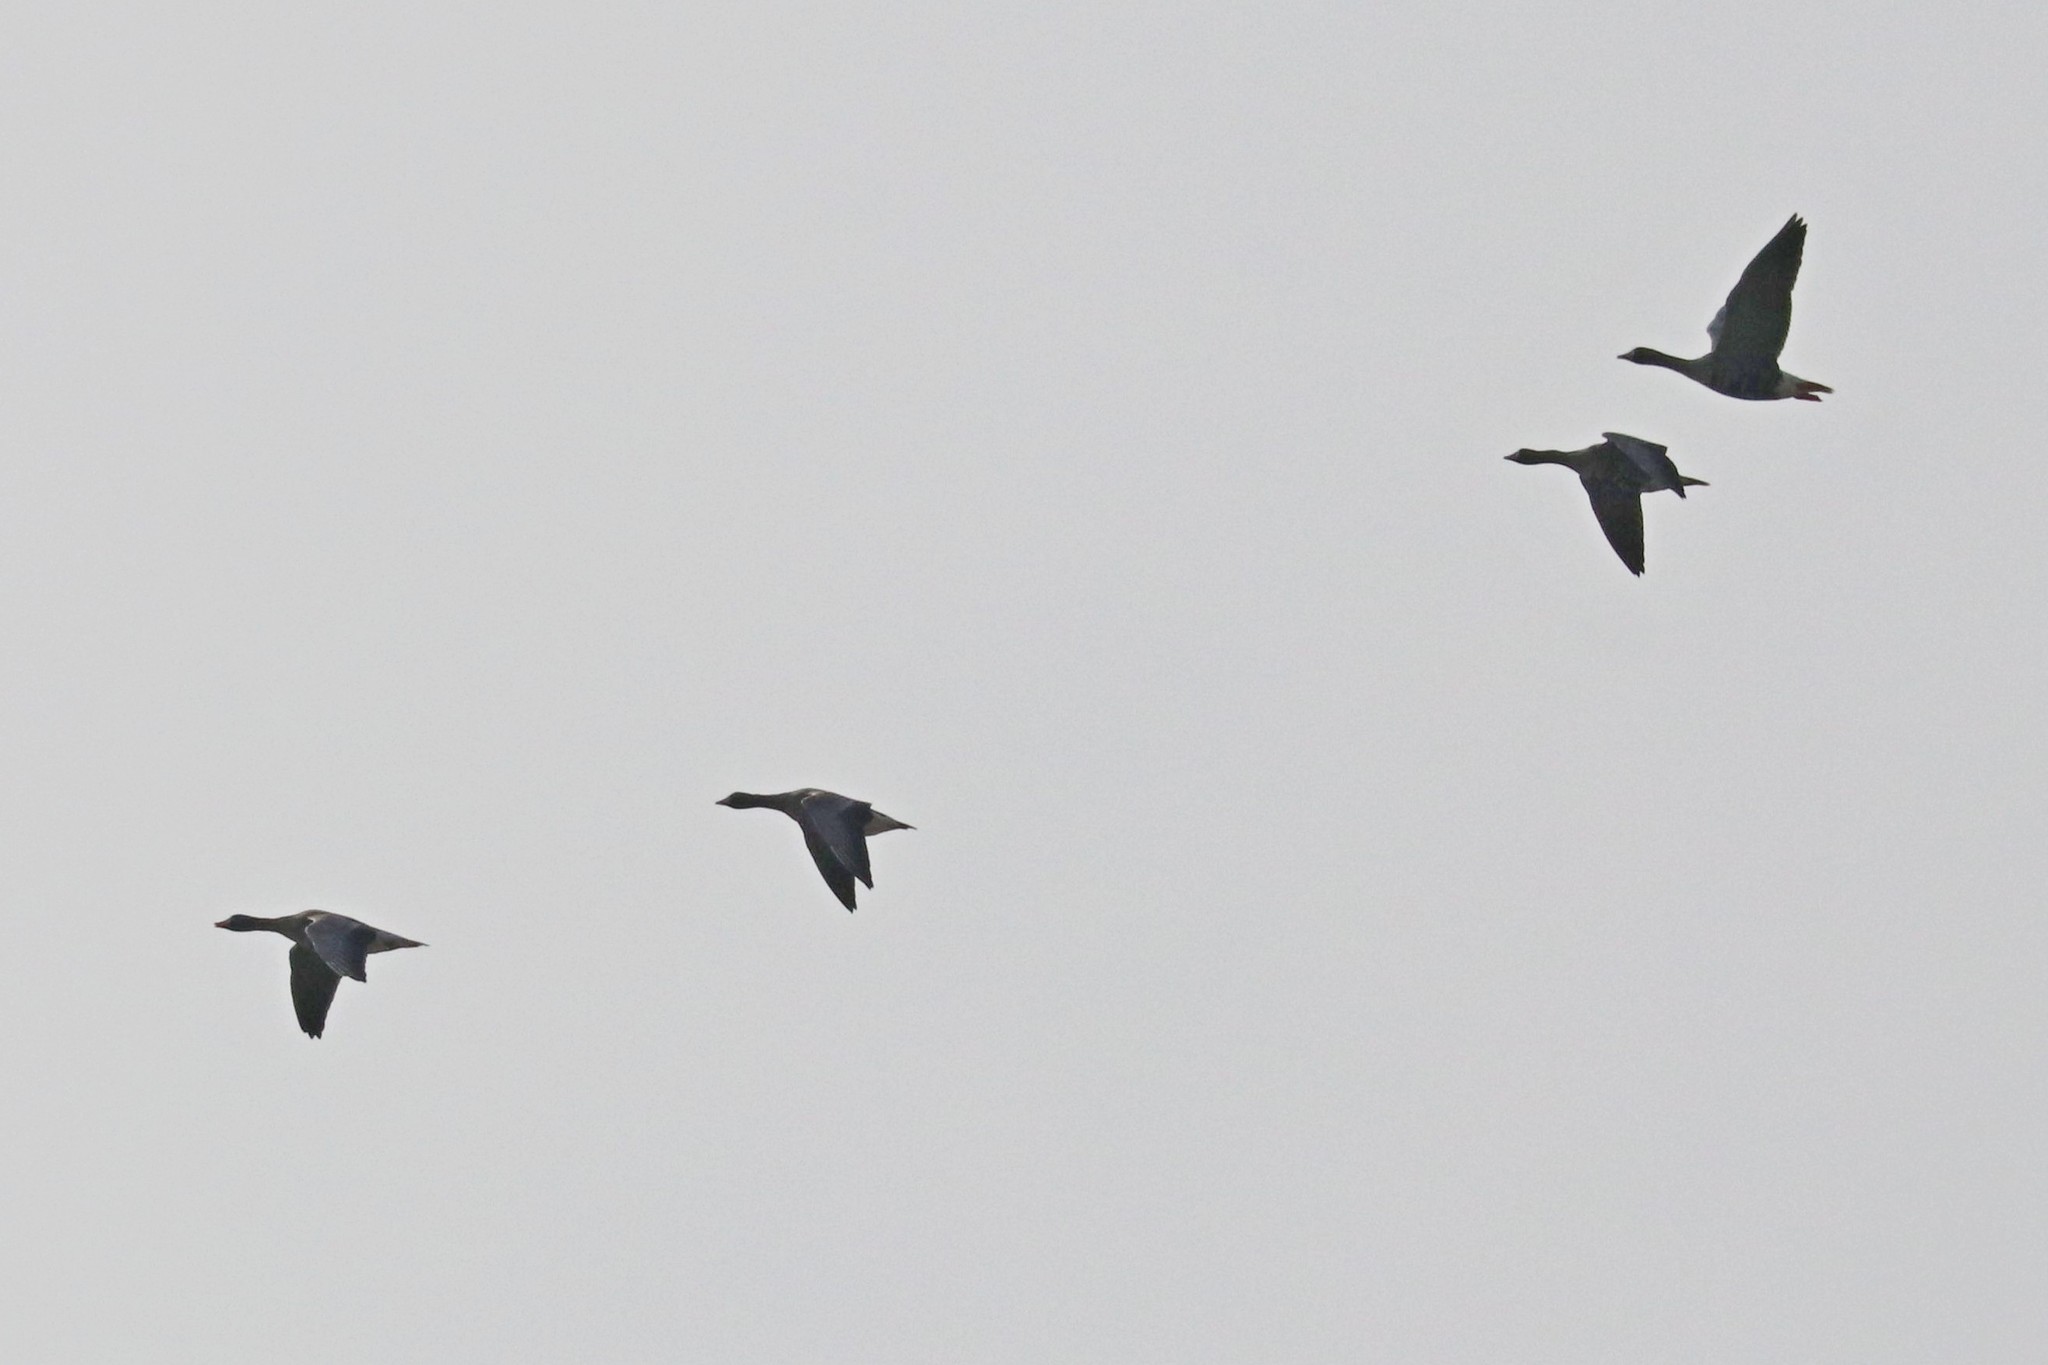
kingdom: Animalia
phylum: Chordata
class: Aves
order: Anseriformes
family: Anatidae
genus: Anser
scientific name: Anser albifrons
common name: Greater white-fronted goose
